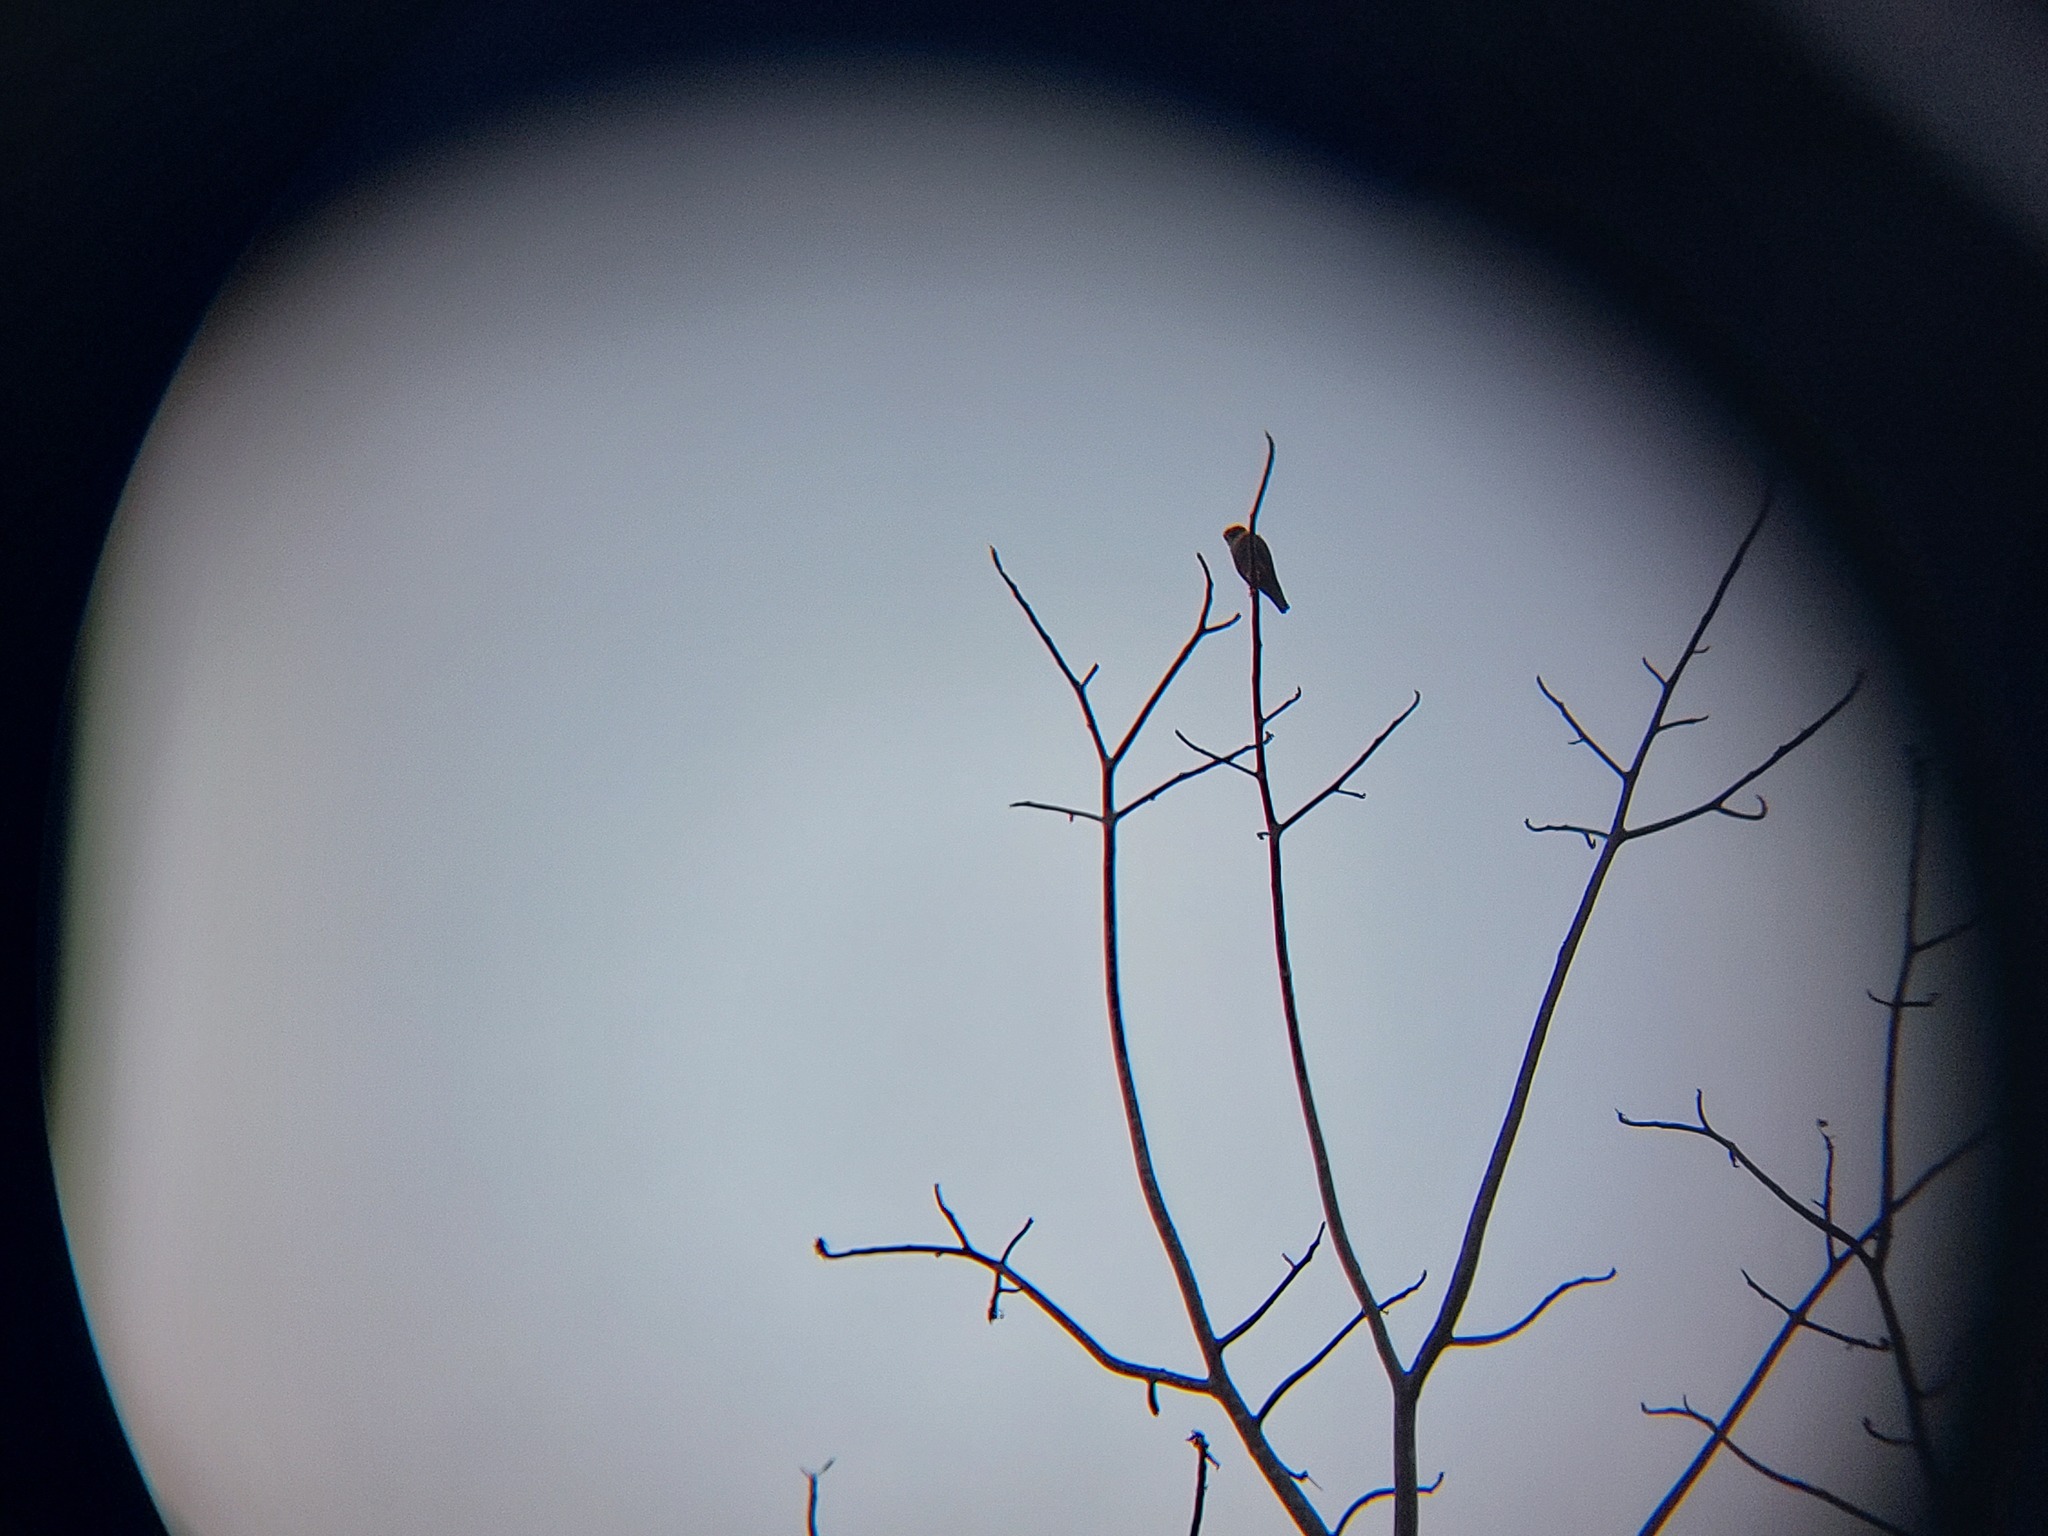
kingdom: Animalia
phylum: Chordata
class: Aves
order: Falconiformes
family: Falconidae
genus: Falco
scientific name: Falco rufigularis
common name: Bat falcon
